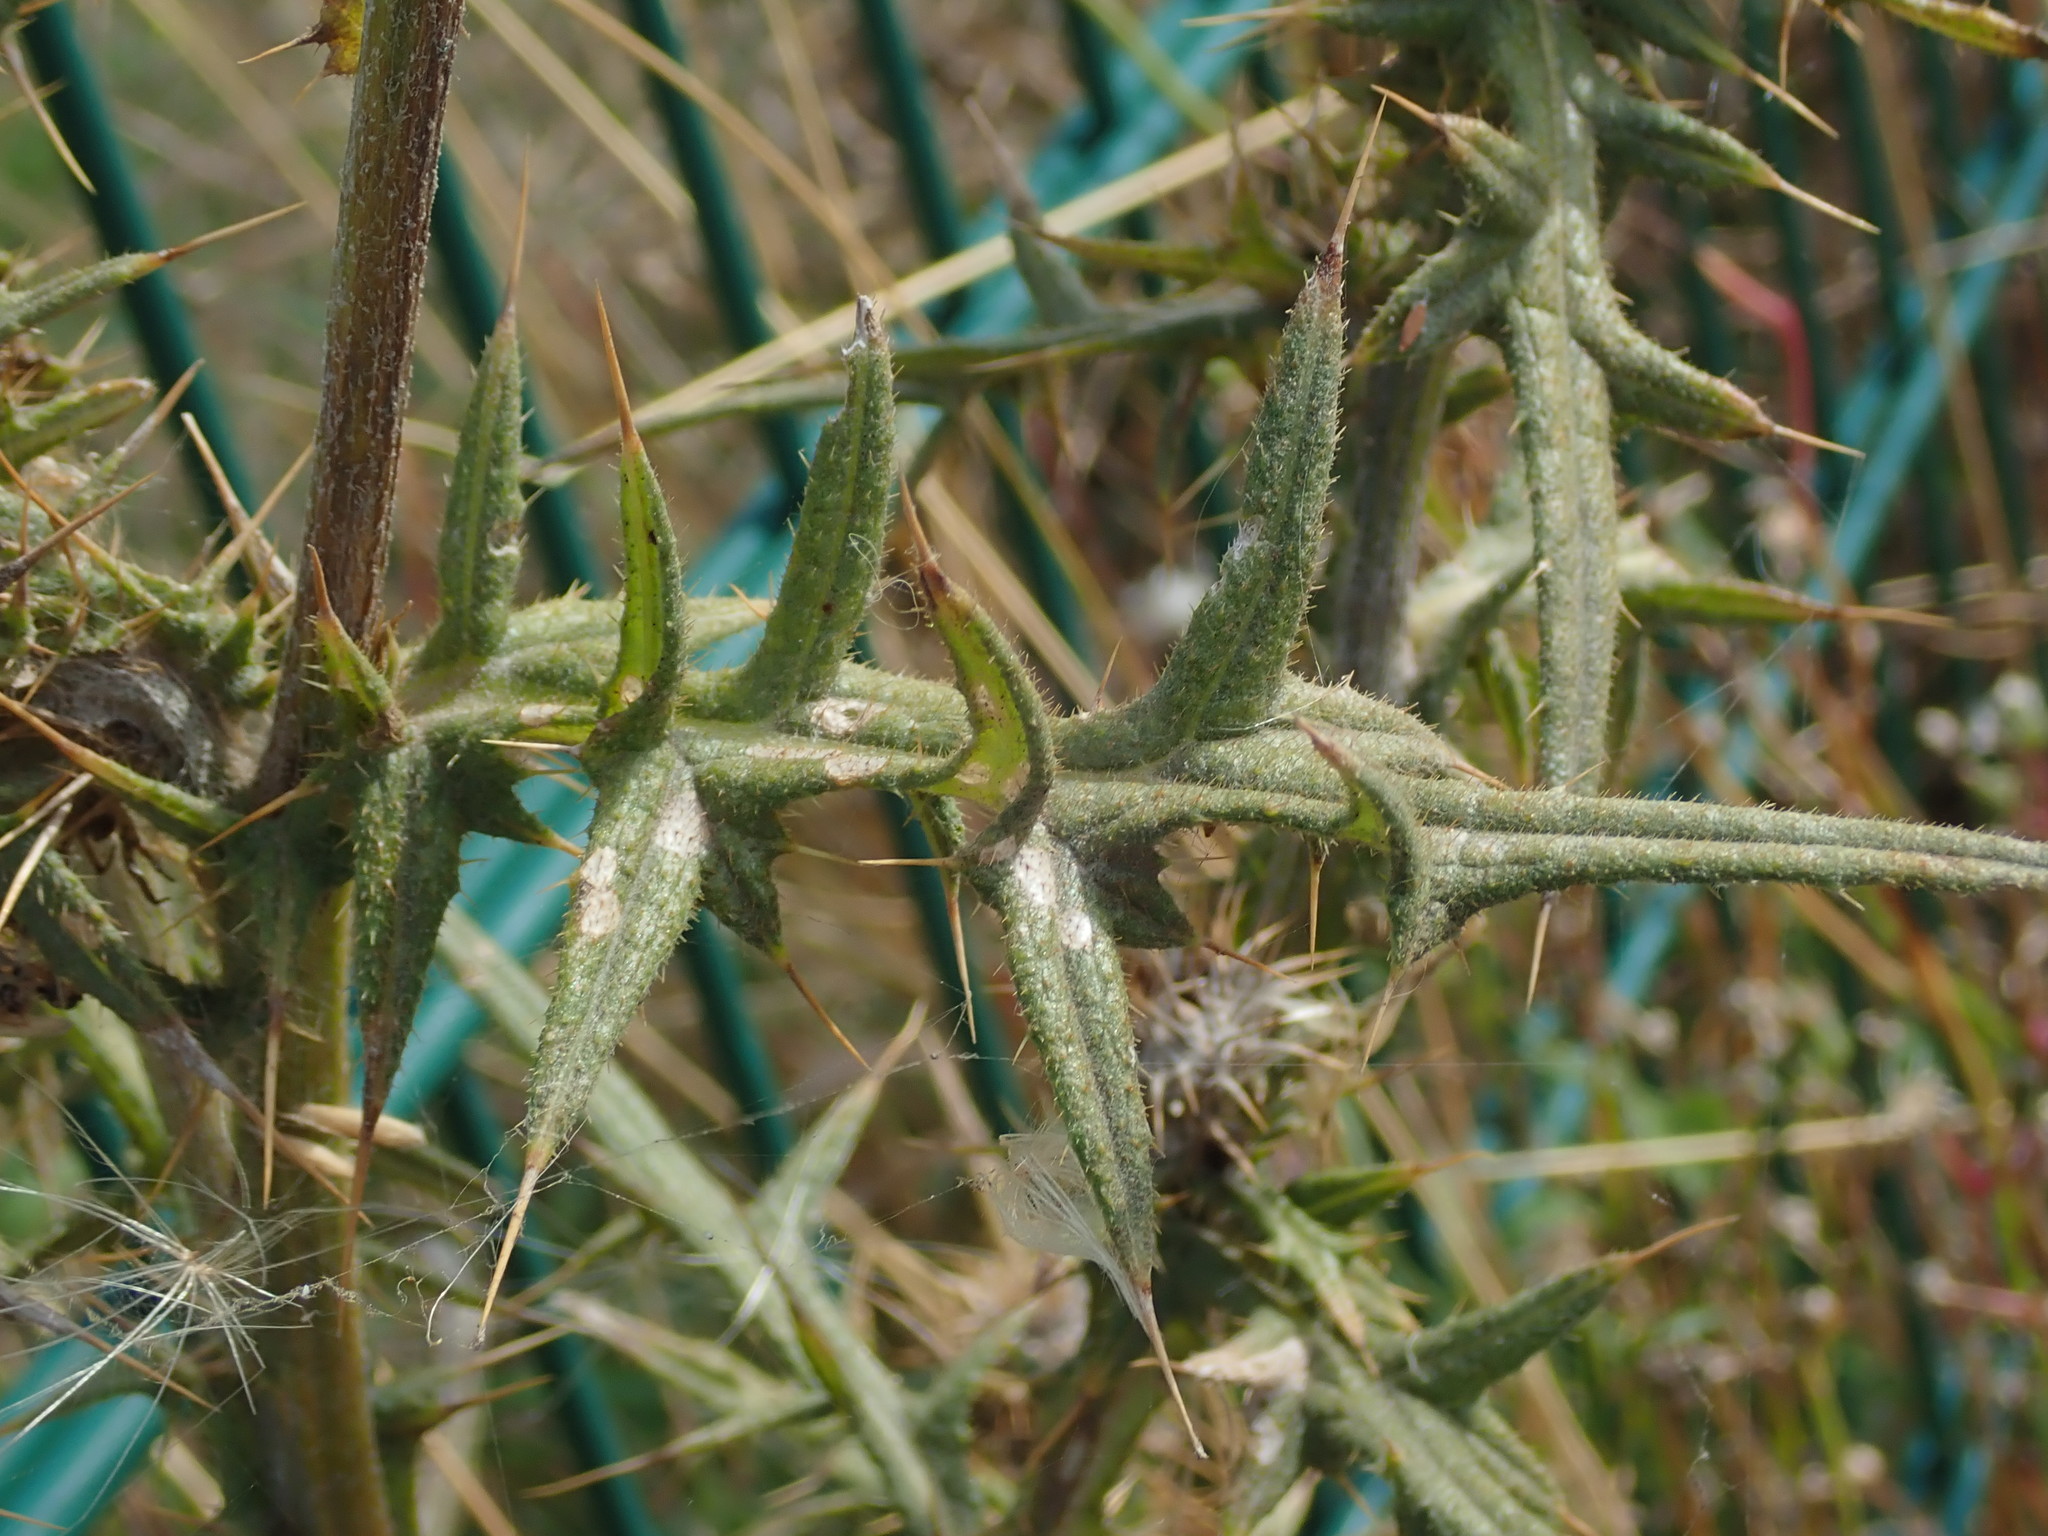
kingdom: Plantae
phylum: Tracheophyta
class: Magnoliopsida
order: Asterales
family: Asteraceae
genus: Cirsium
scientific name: Cirsium vulgare
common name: Bull thistle
